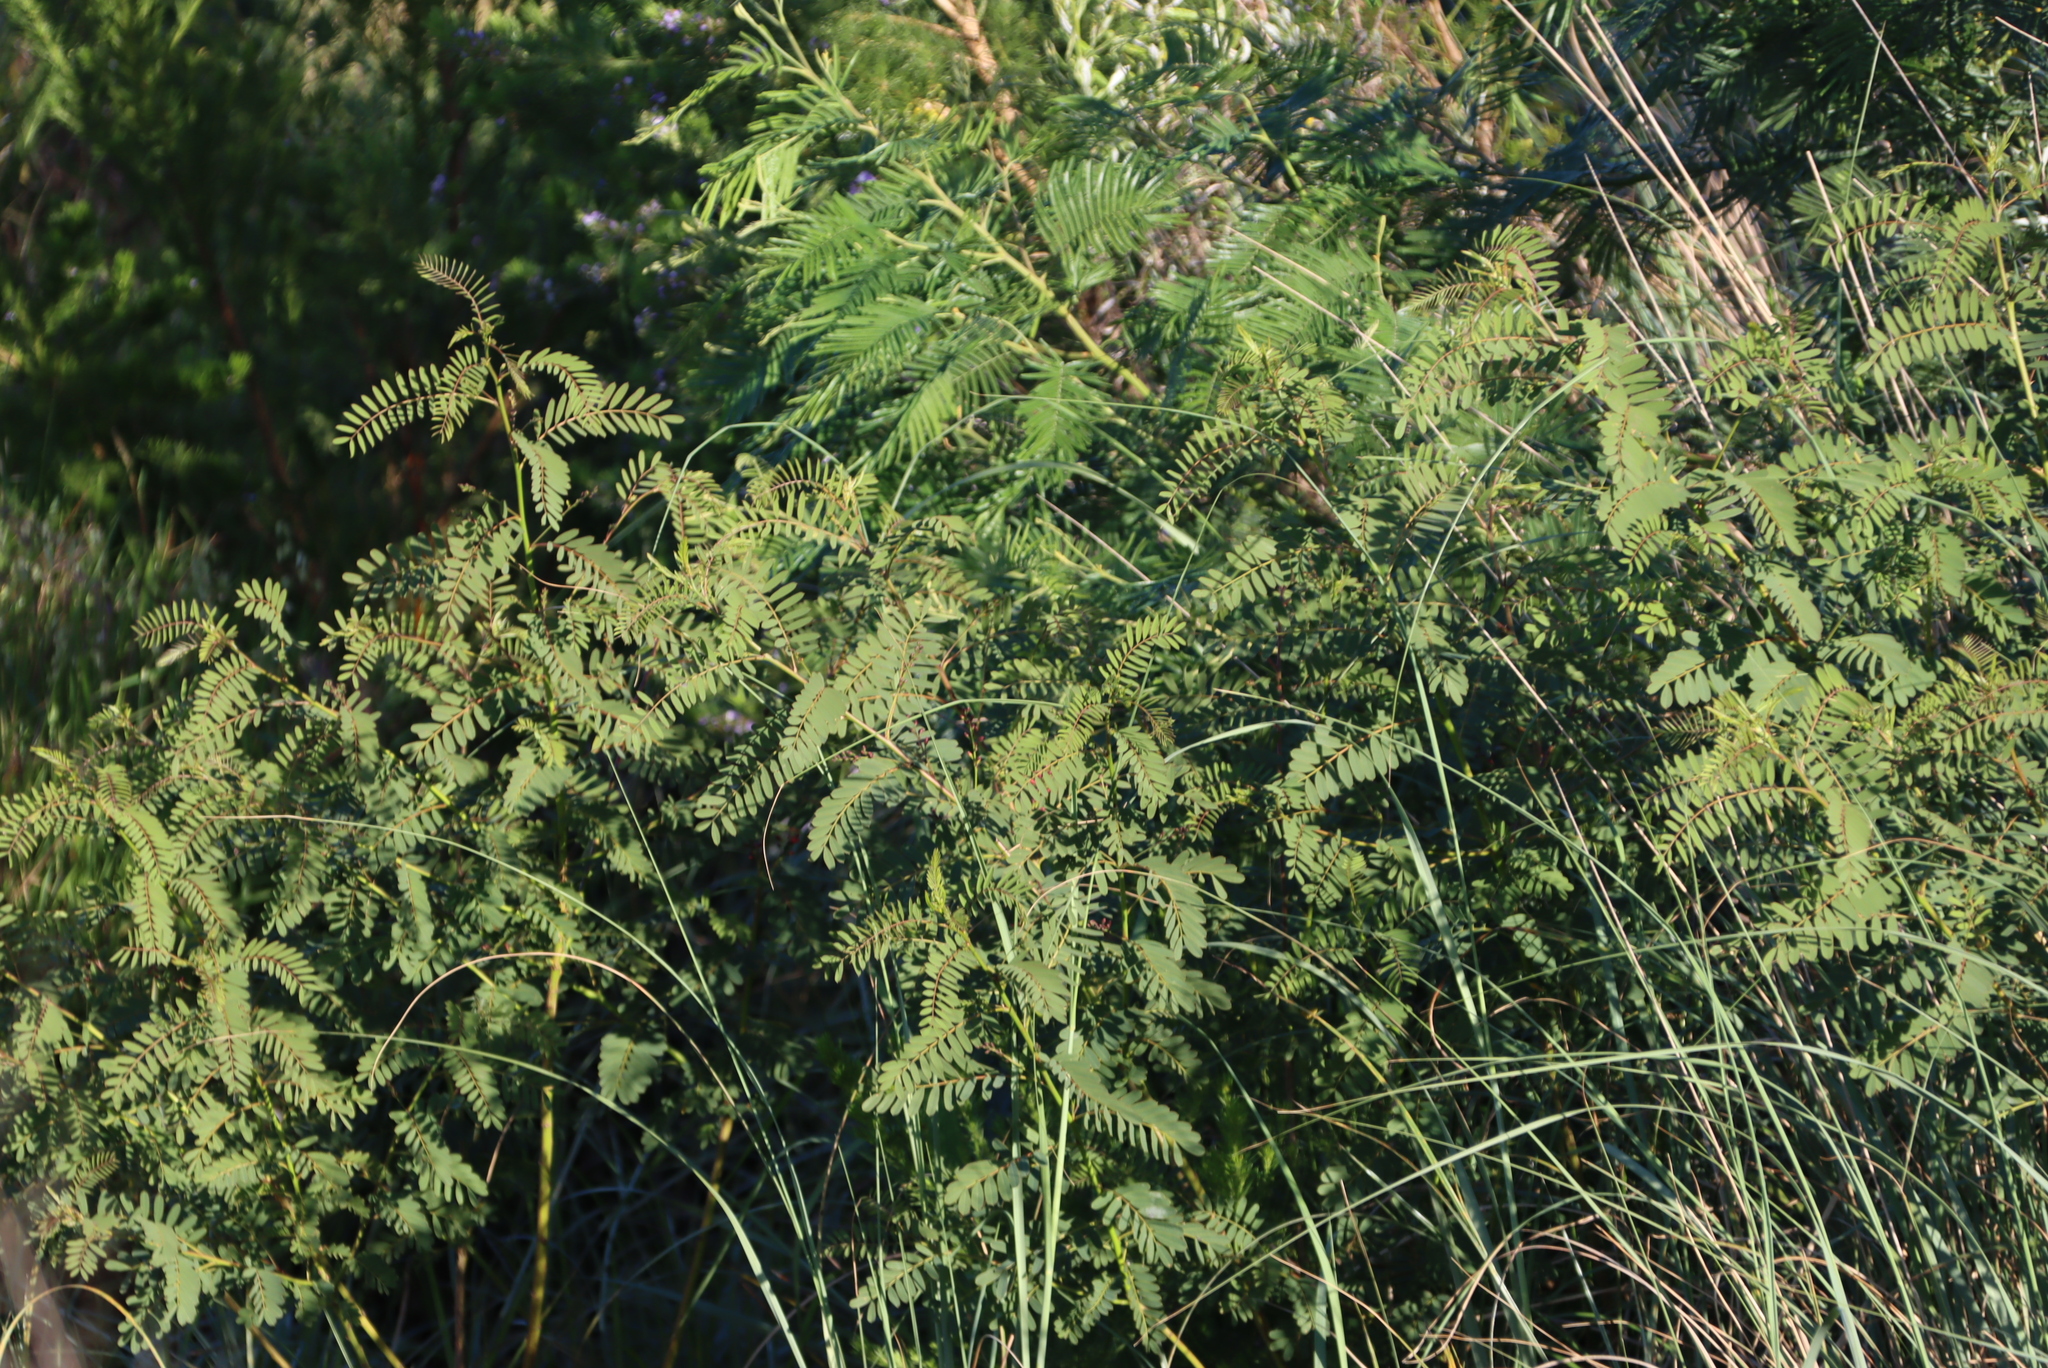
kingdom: Plantae
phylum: Tracheophyta
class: Magnoliopsida
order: Fabales
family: Fabaceae
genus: Acacia
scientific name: Acacia mearnsii
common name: Black wattle
